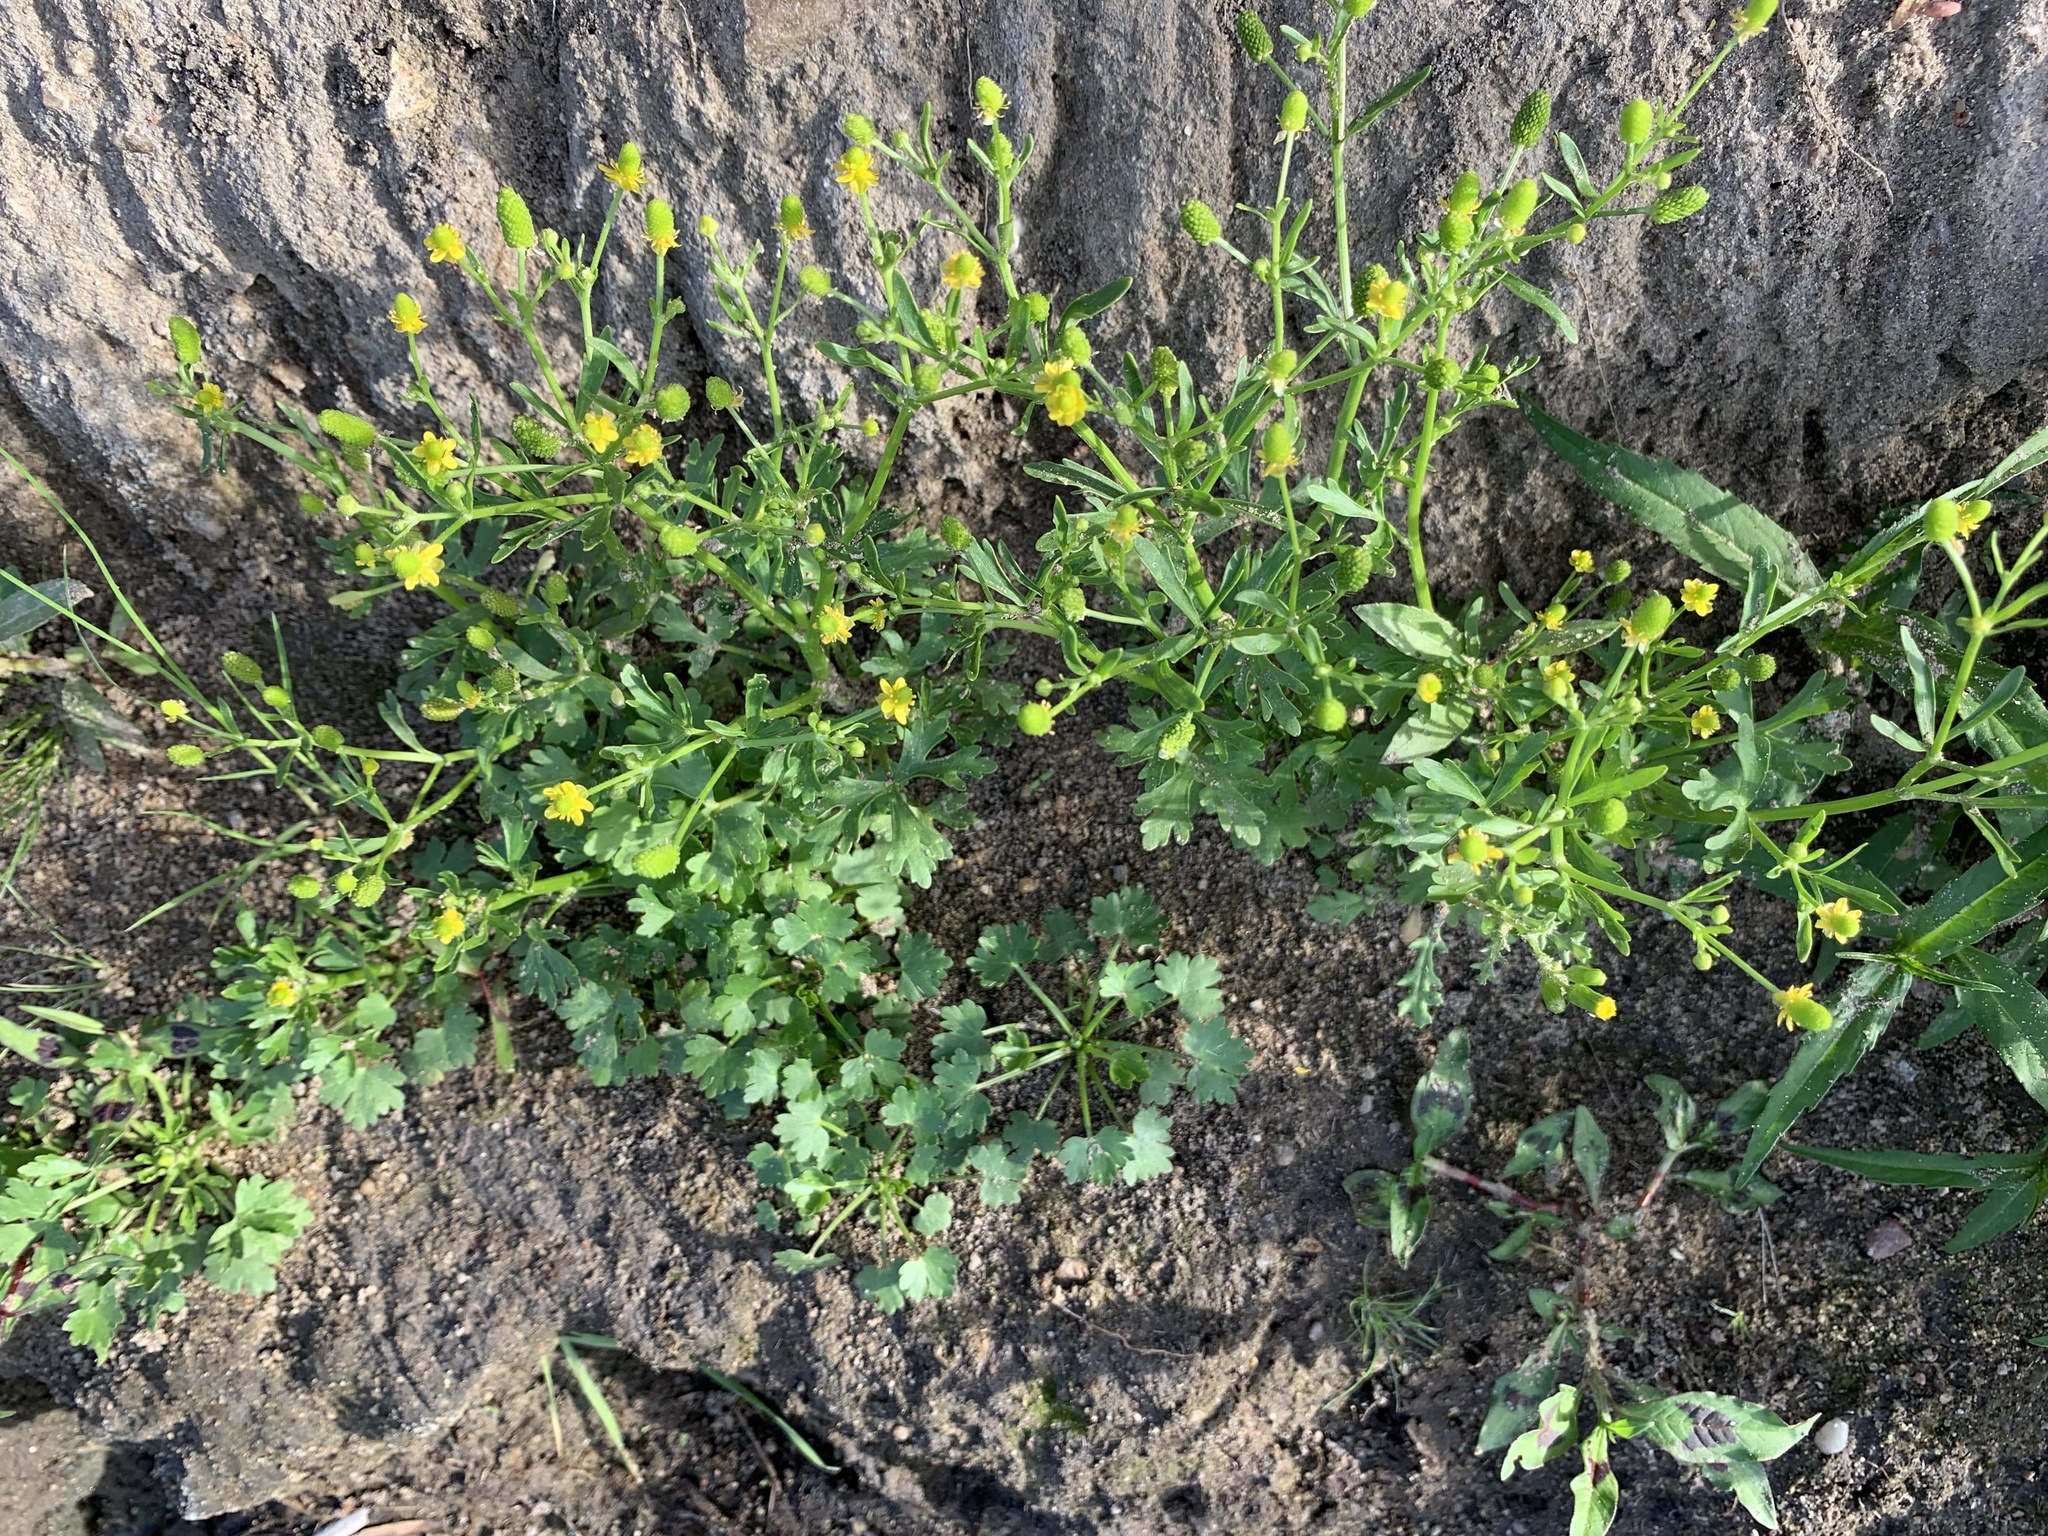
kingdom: Plantae
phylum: Tracheophyta
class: Magnoliopsida
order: Ranunculales
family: Ranunculaceae
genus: Ranunculus
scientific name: Ranunculus sceleratus
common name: Celery-leaved buttercup
